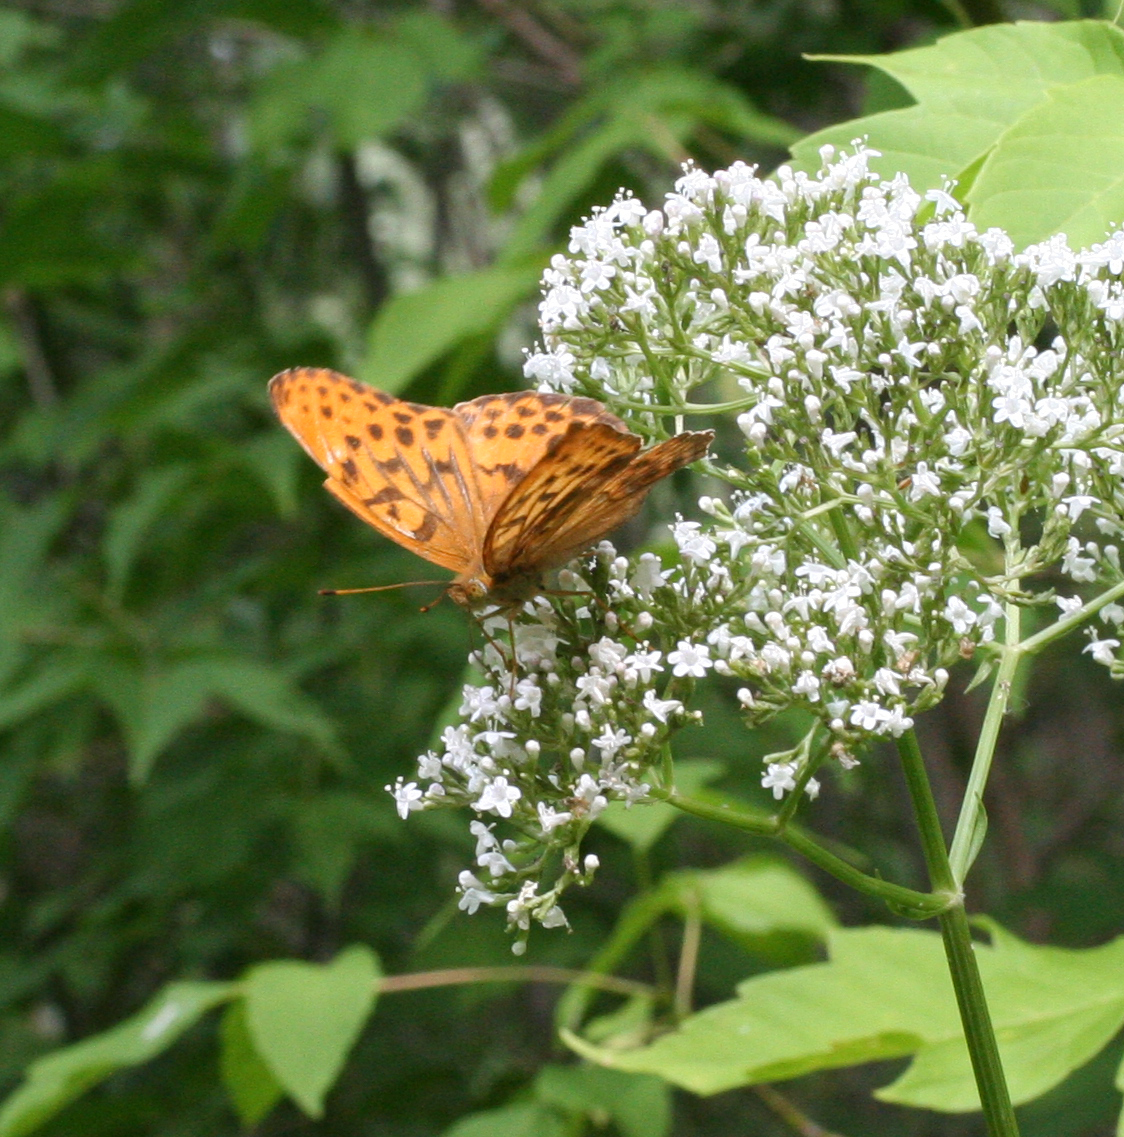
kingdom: Animalia
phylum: Arthropoda
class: Insecta
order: Lepidoptera
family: Nymphalidae
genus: Damora
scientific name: Damora sagana
